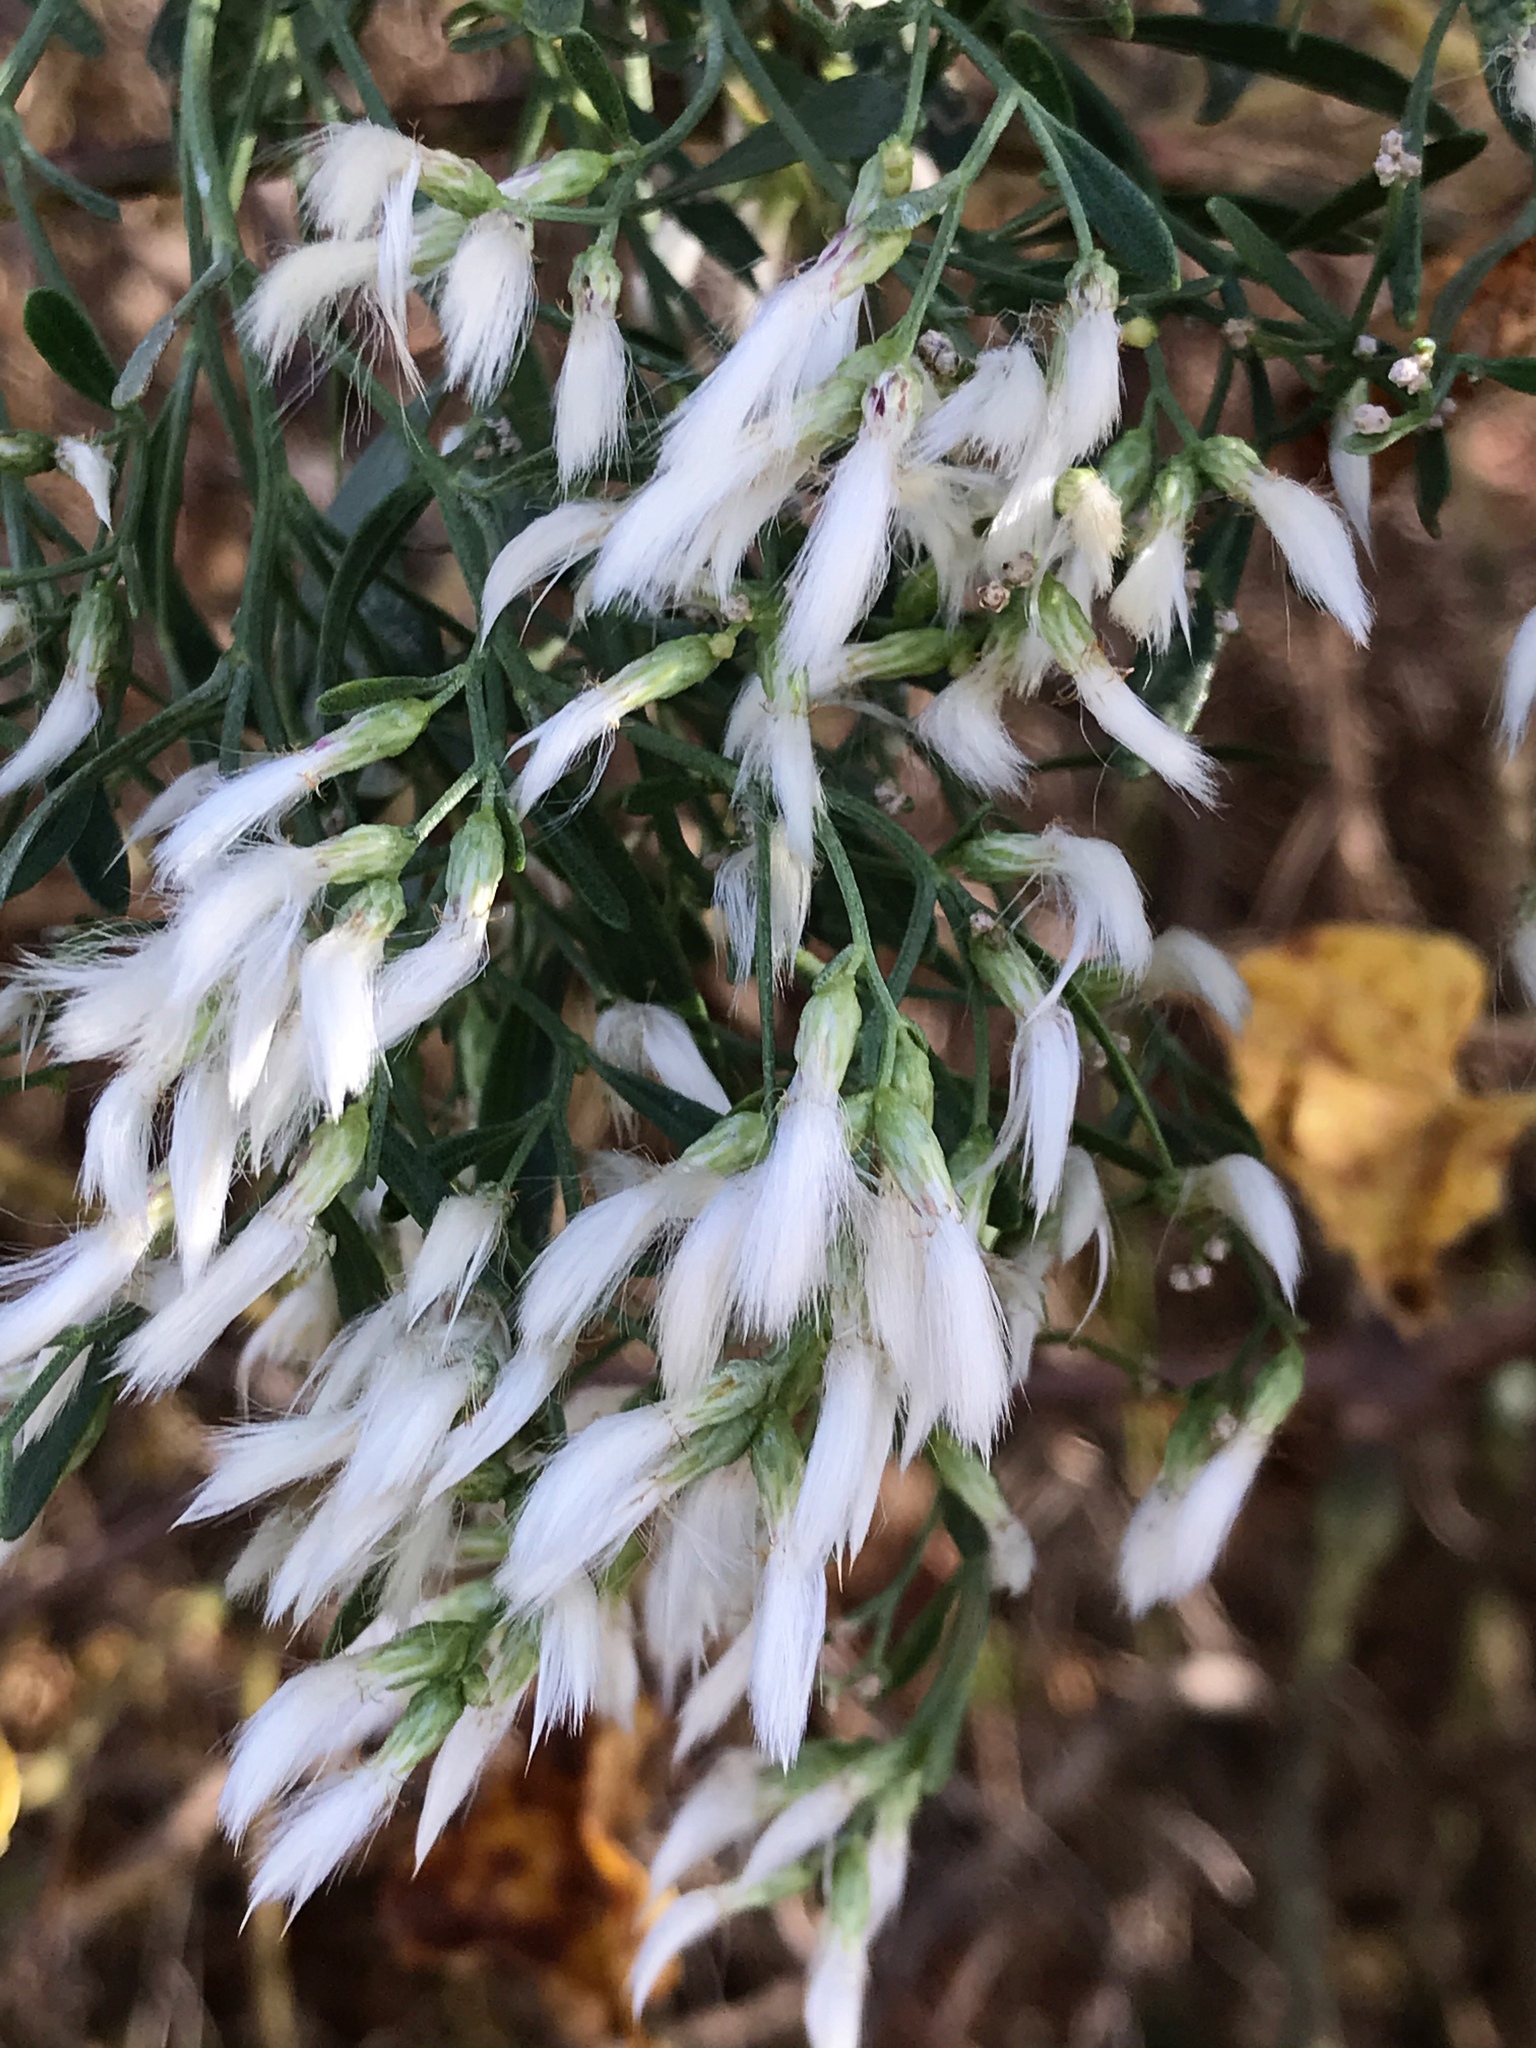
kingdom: Plantae
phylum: Tracheophyta
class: Magnoliopsida
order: Asterales
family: Asteraceae
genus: Baccharis
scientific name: Baccharis halimifolia
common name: Eastern baccharis
